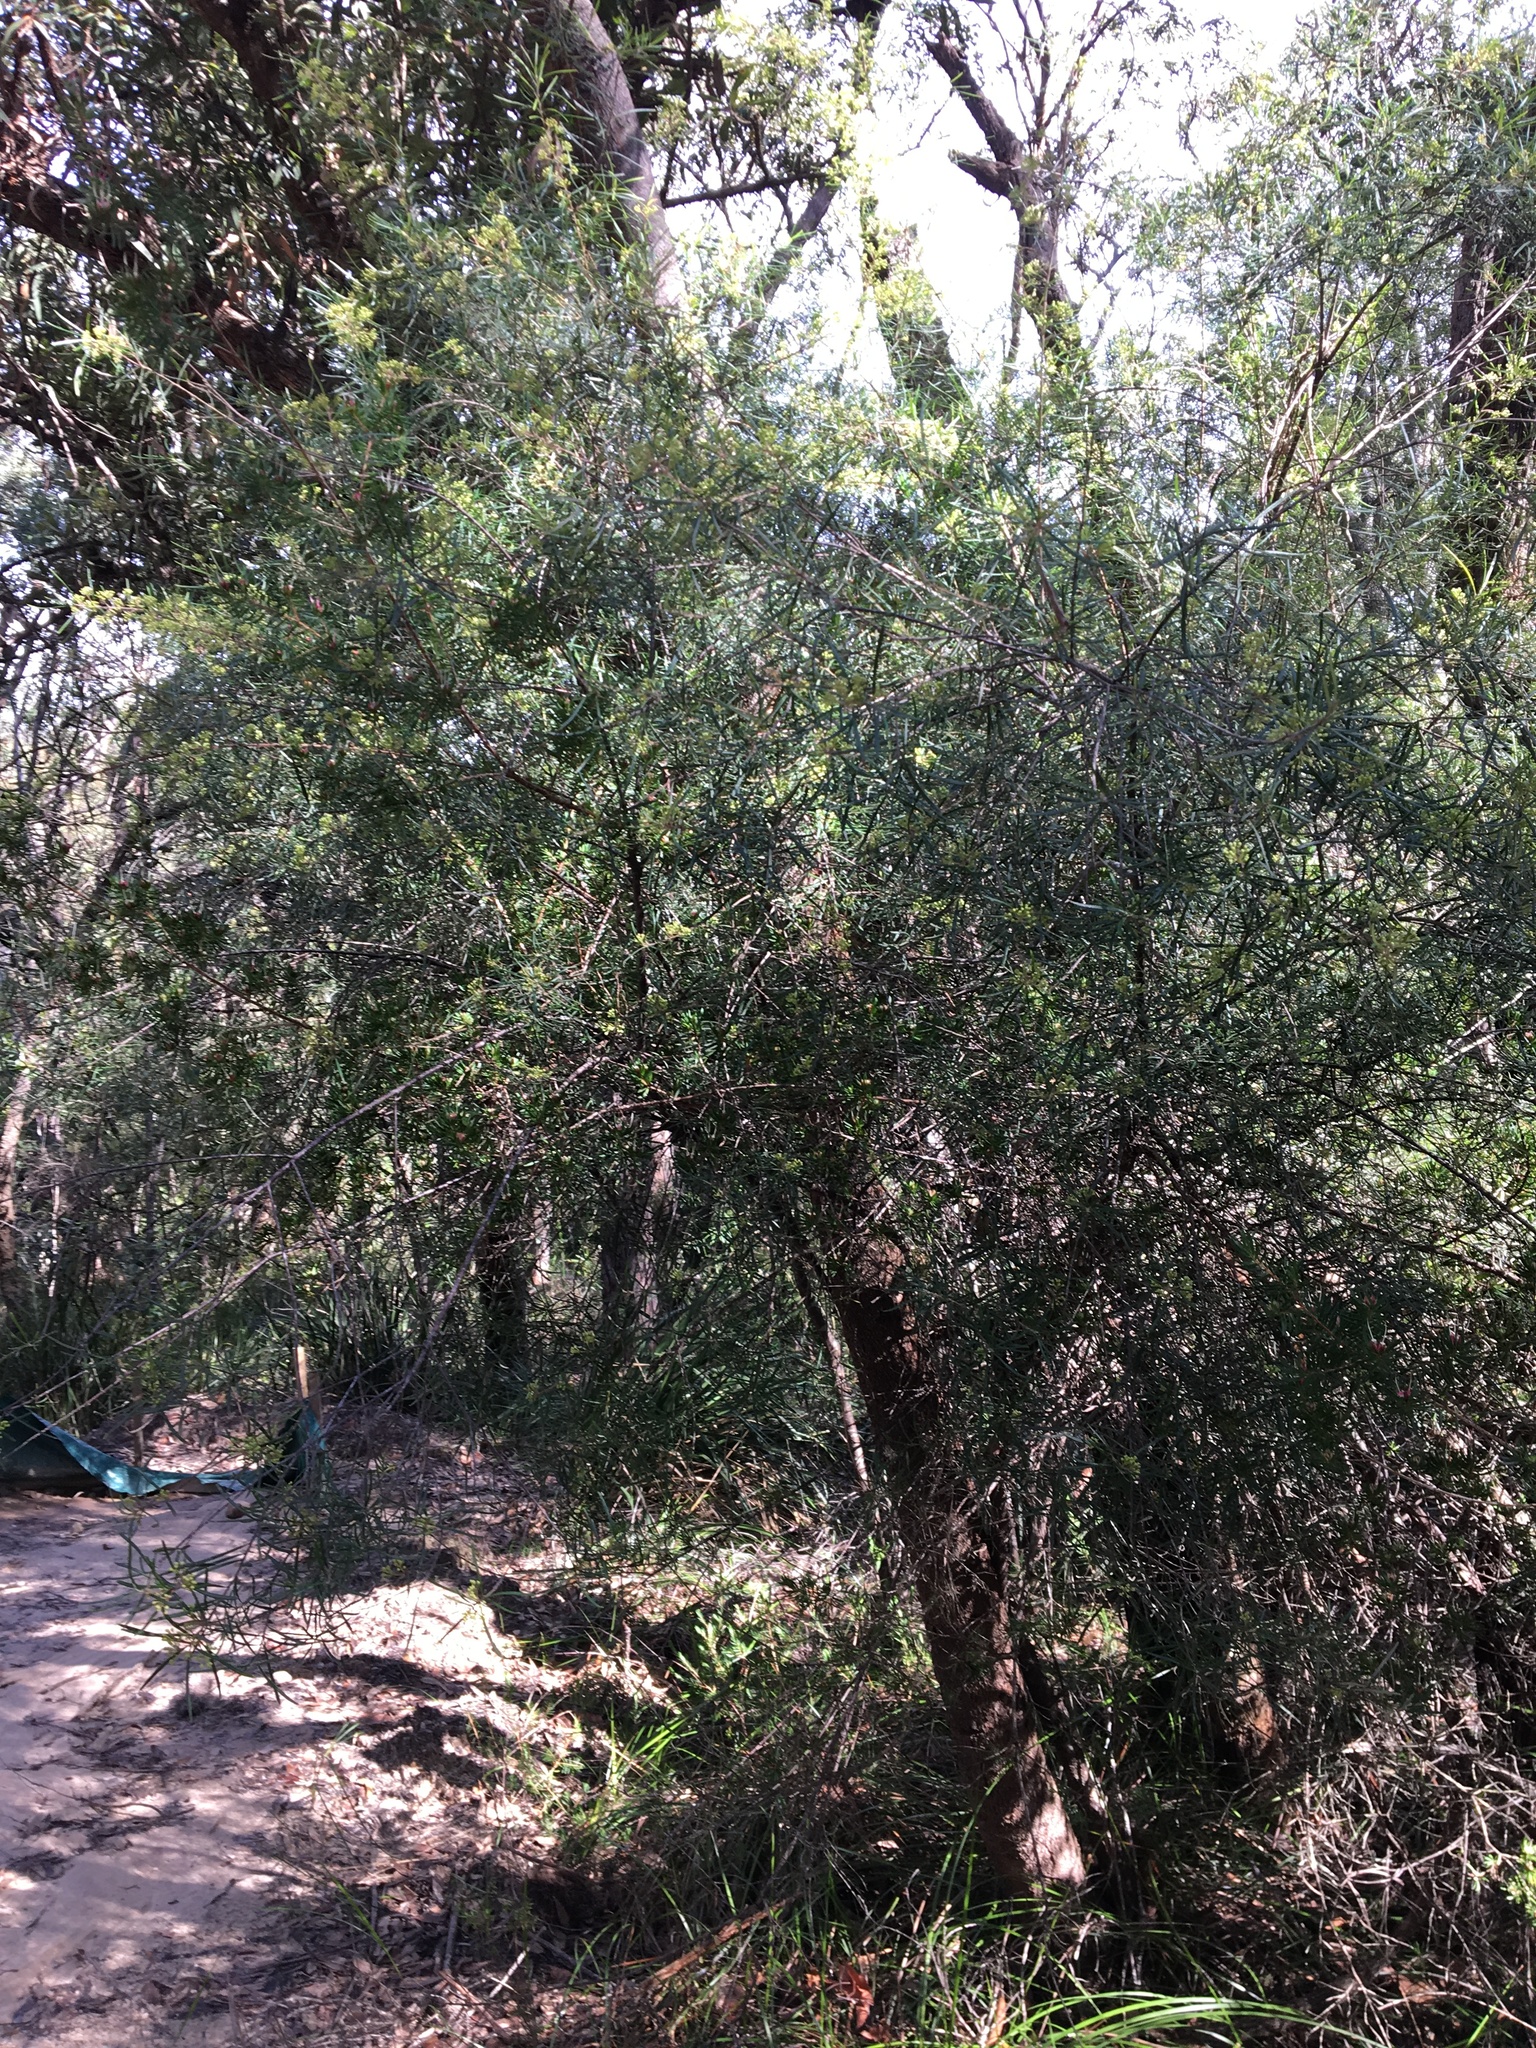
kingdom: Plantae
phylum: Tracheophyta
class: Magnoliopsida
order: Sapindales
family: Rutaceae
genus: Leionema
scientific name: Leionema dentatum
